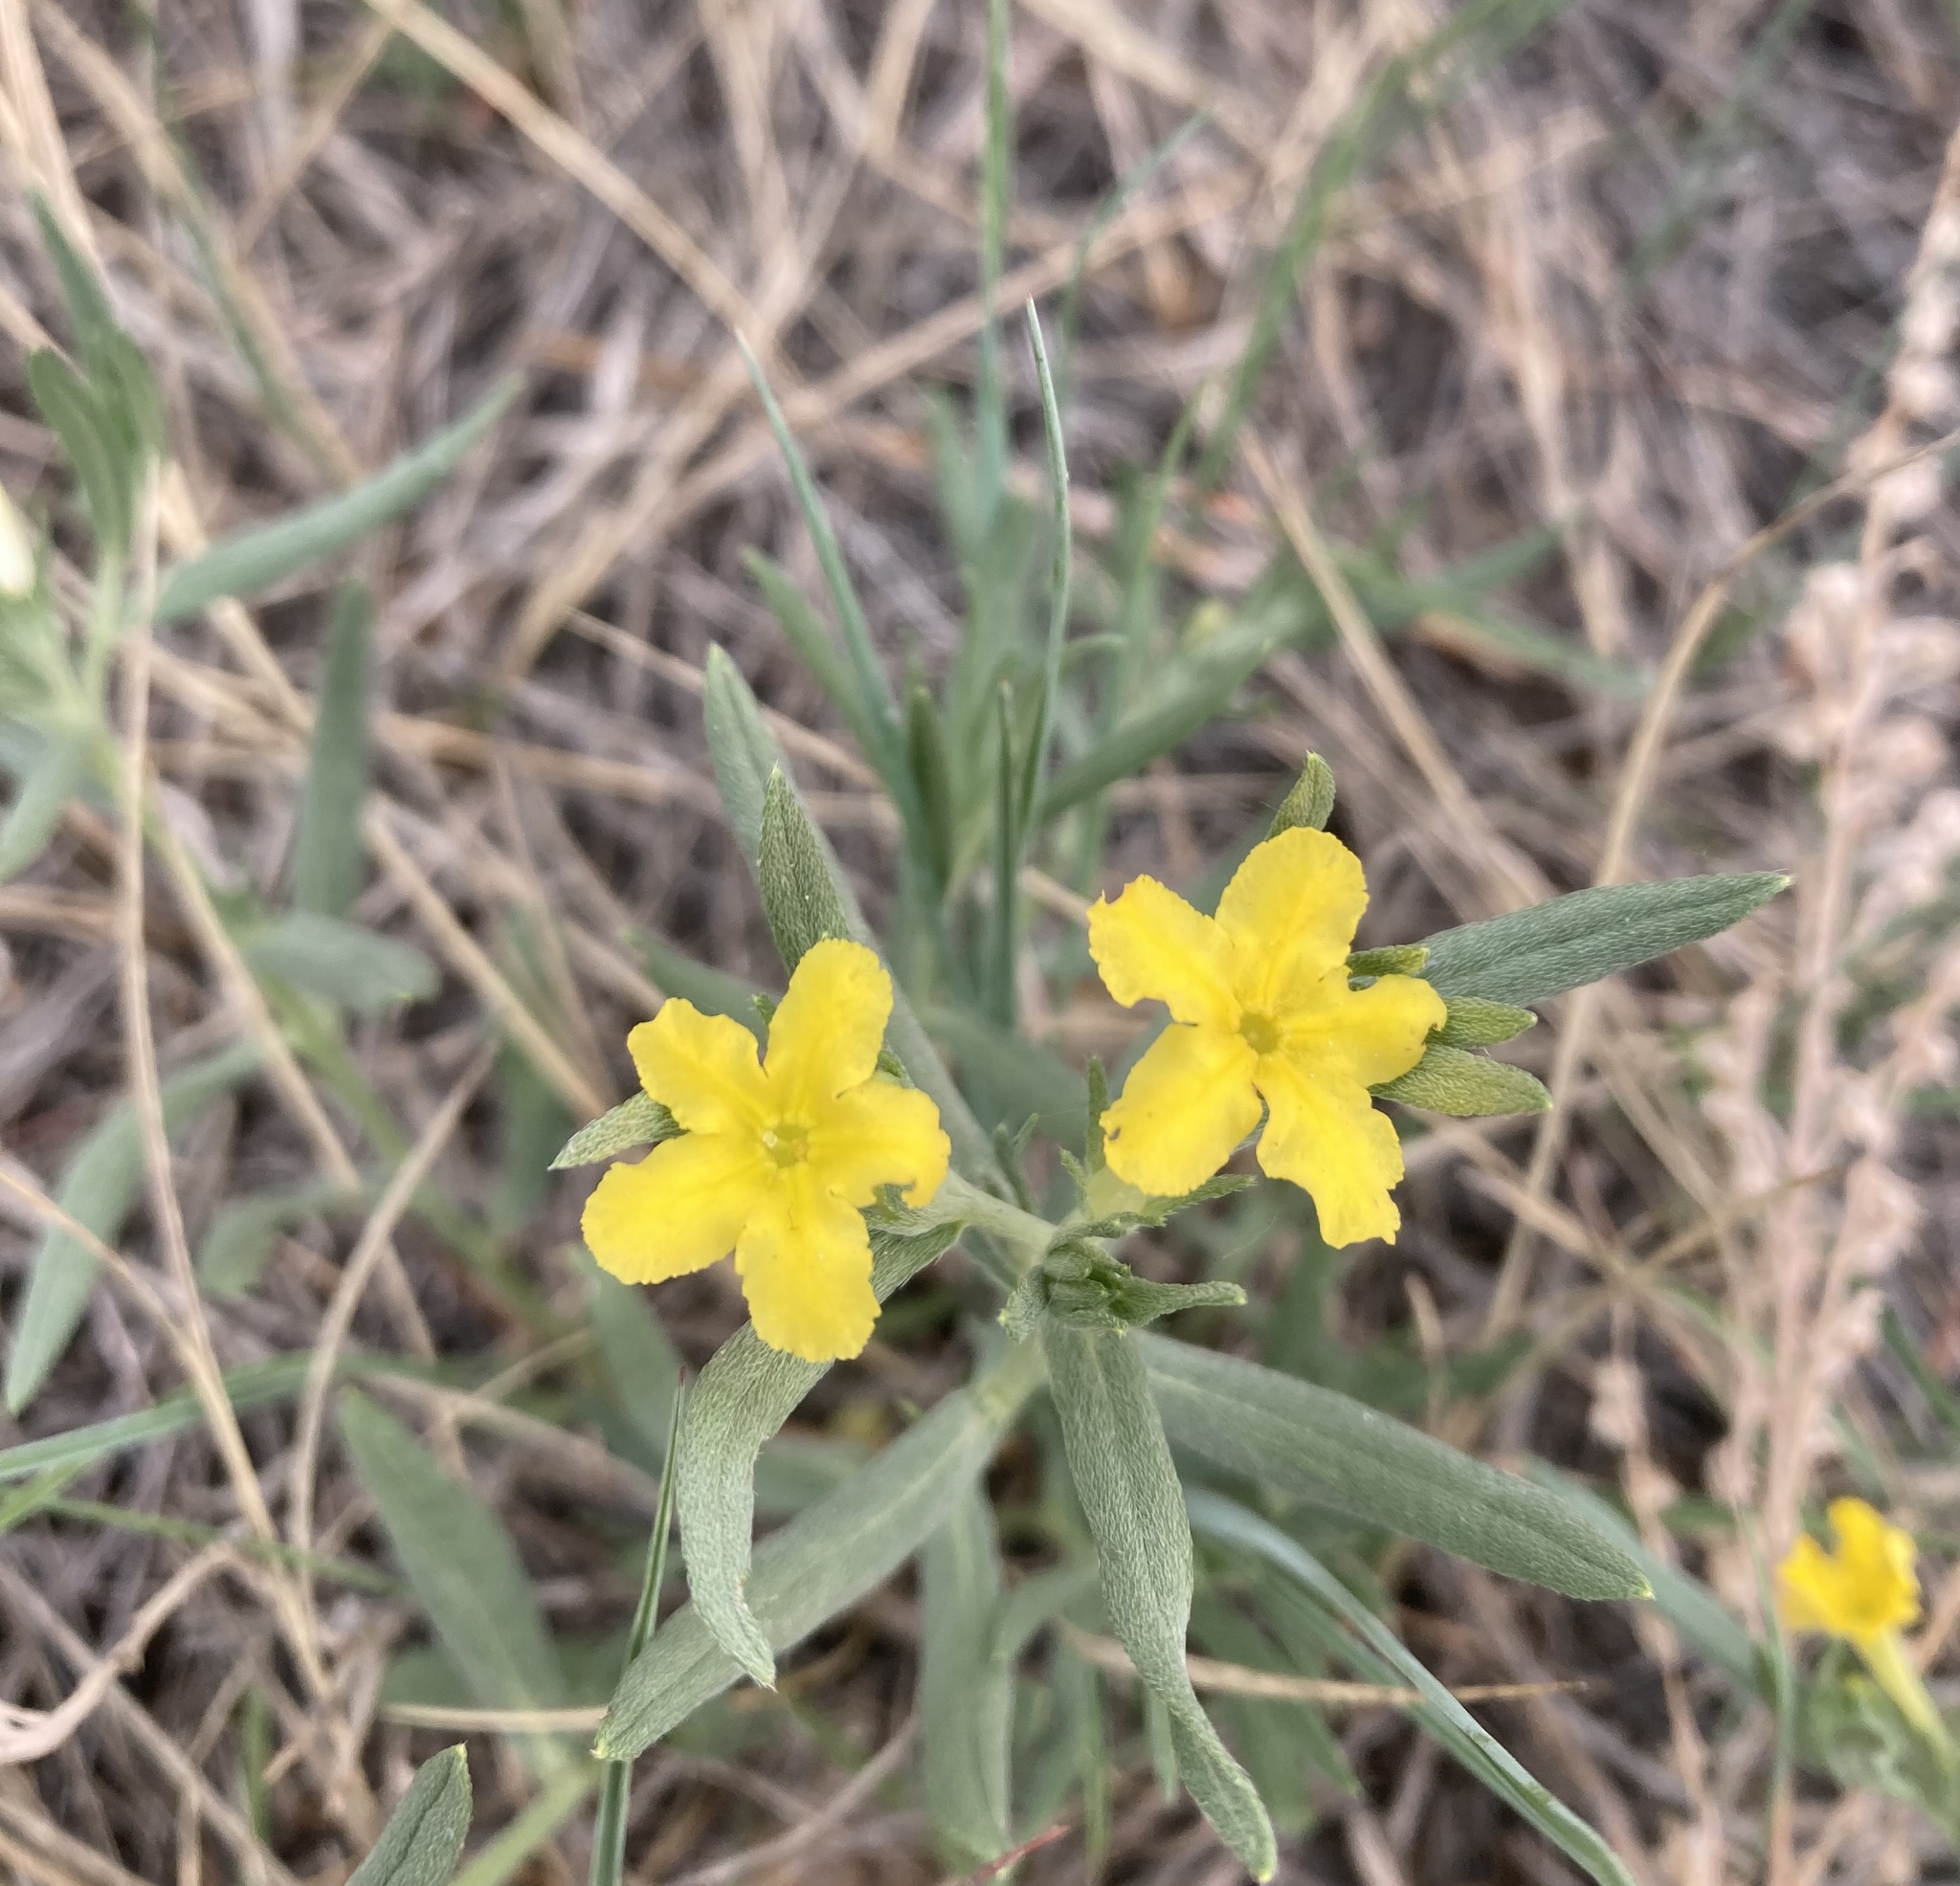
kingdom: Plantae
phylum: Tracheophyta
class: Magnoliopsida
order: Boraginales
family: Boraginaceae
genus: Lithospermum
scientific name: Lithospermum incisum
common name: Fringed gromwell
